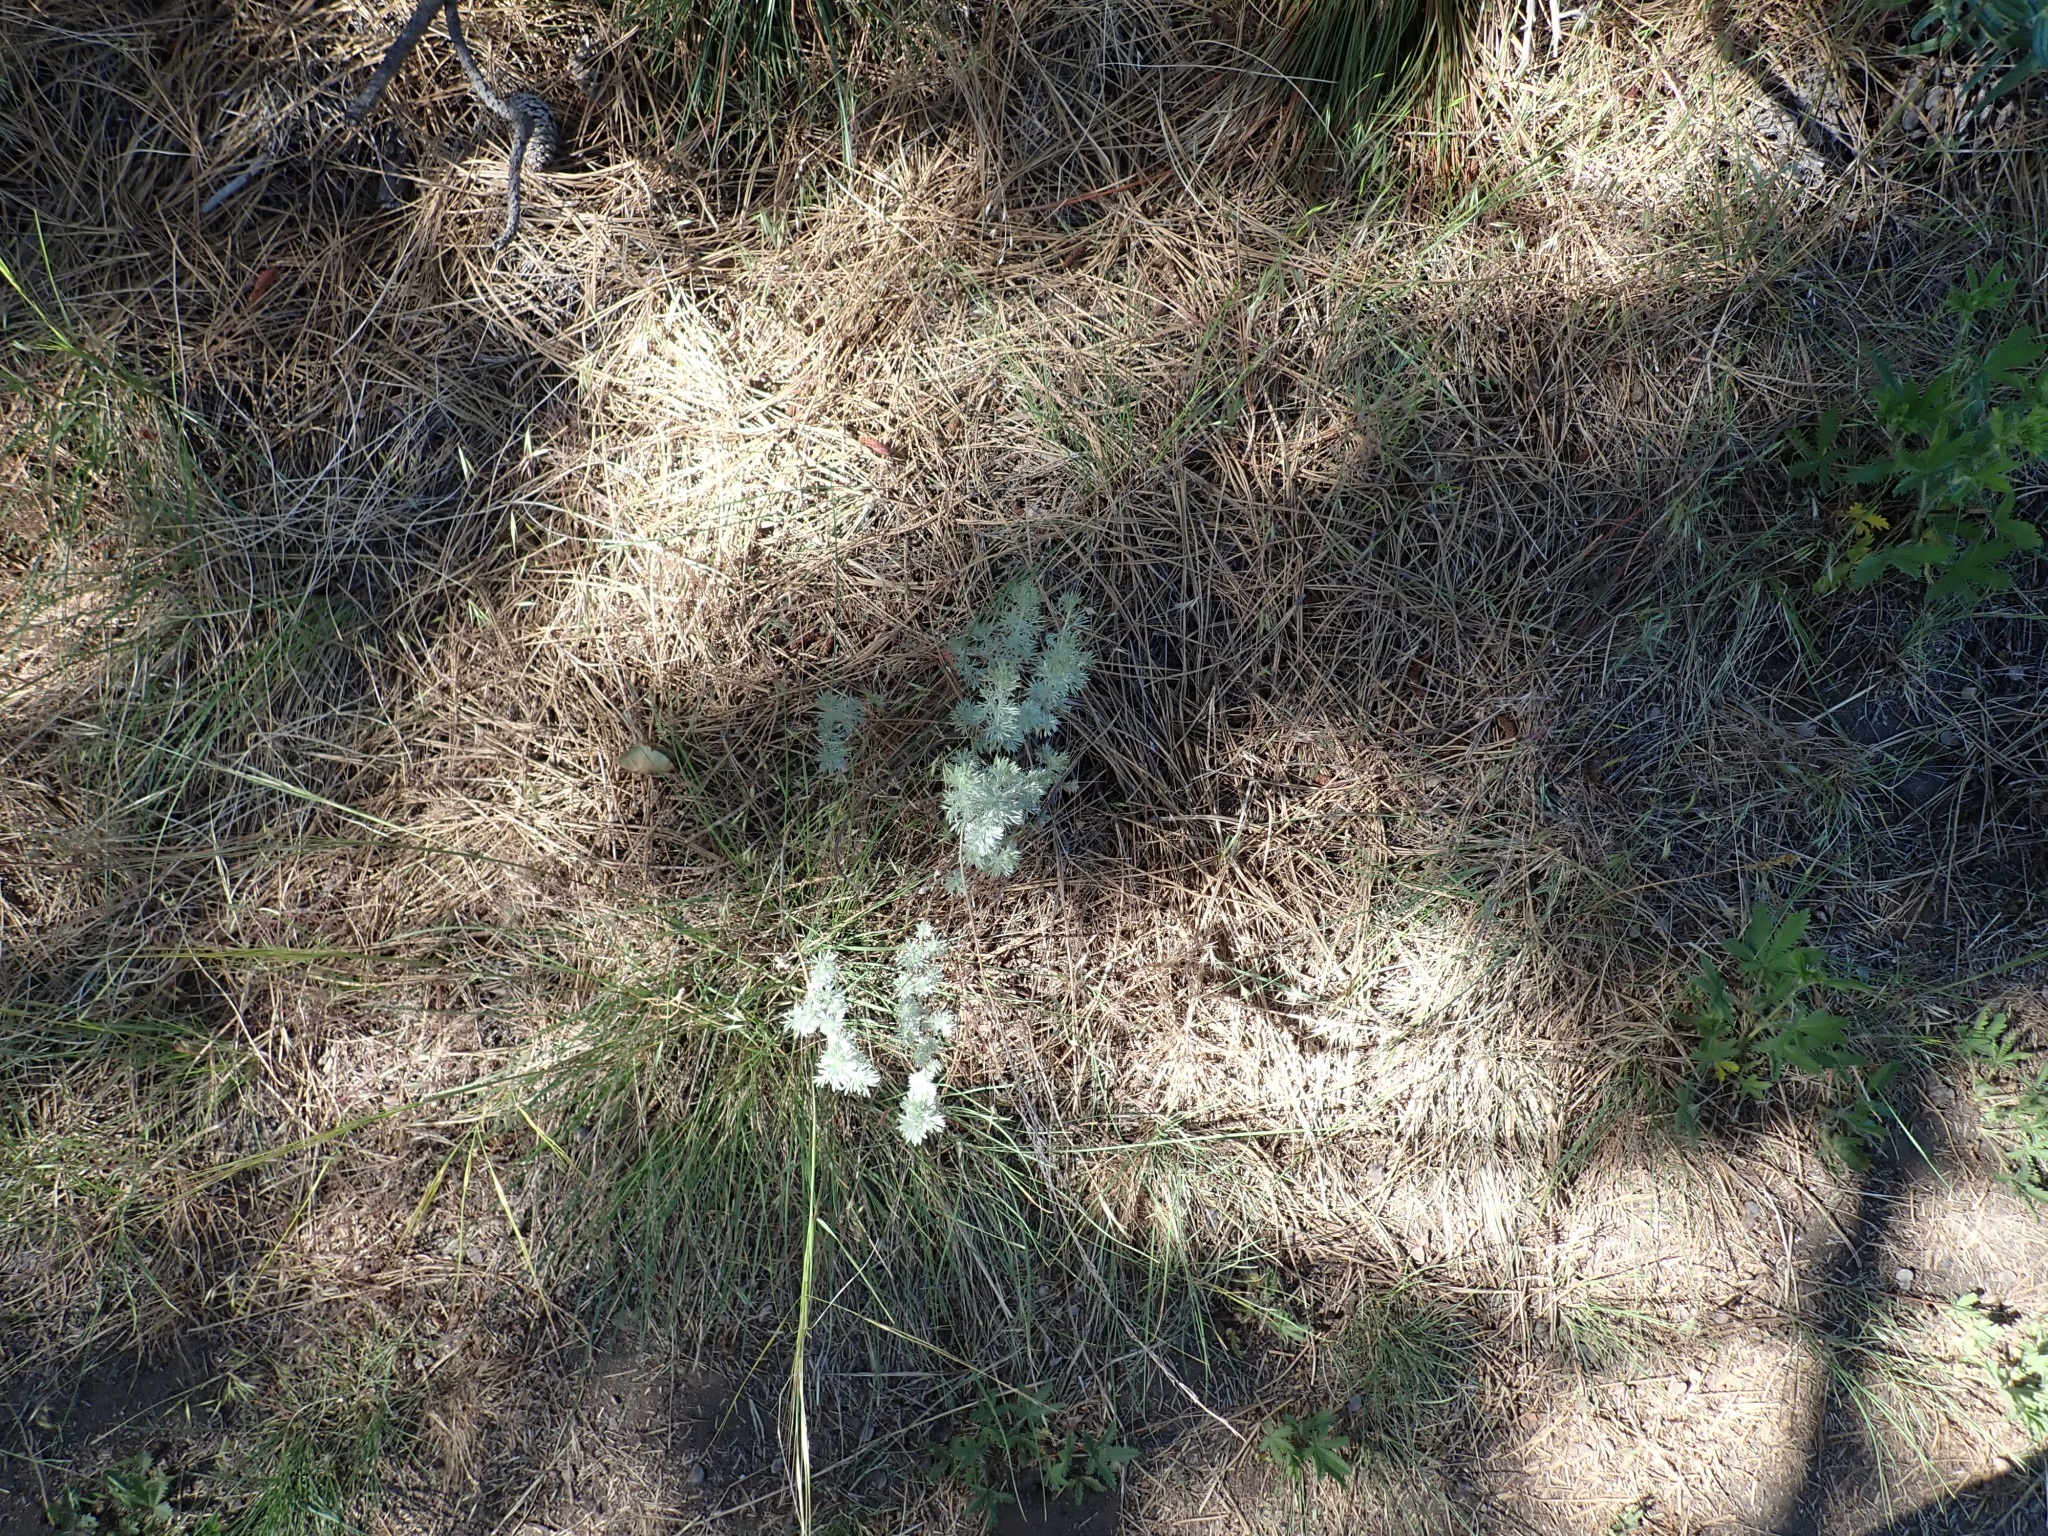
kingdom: Plantae
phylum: Tracheophyta
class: Magnoliopsida
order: Asterales
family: Asteraceae
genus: Artemisia
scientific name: Artemisia frigida
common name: Prairie sagewort
